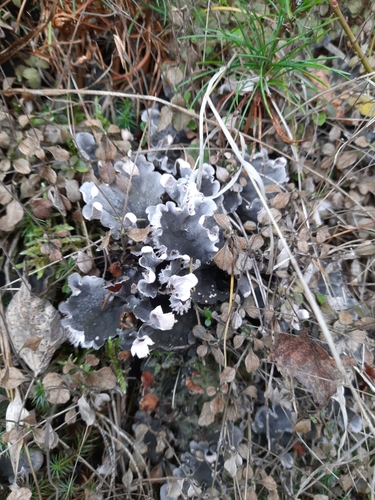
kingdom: Fungi
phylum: Ascomycota
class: Lecanoromycetes
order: Peltigerales
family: Peltigeraceae
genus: Peltigera
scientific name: Peltigera
